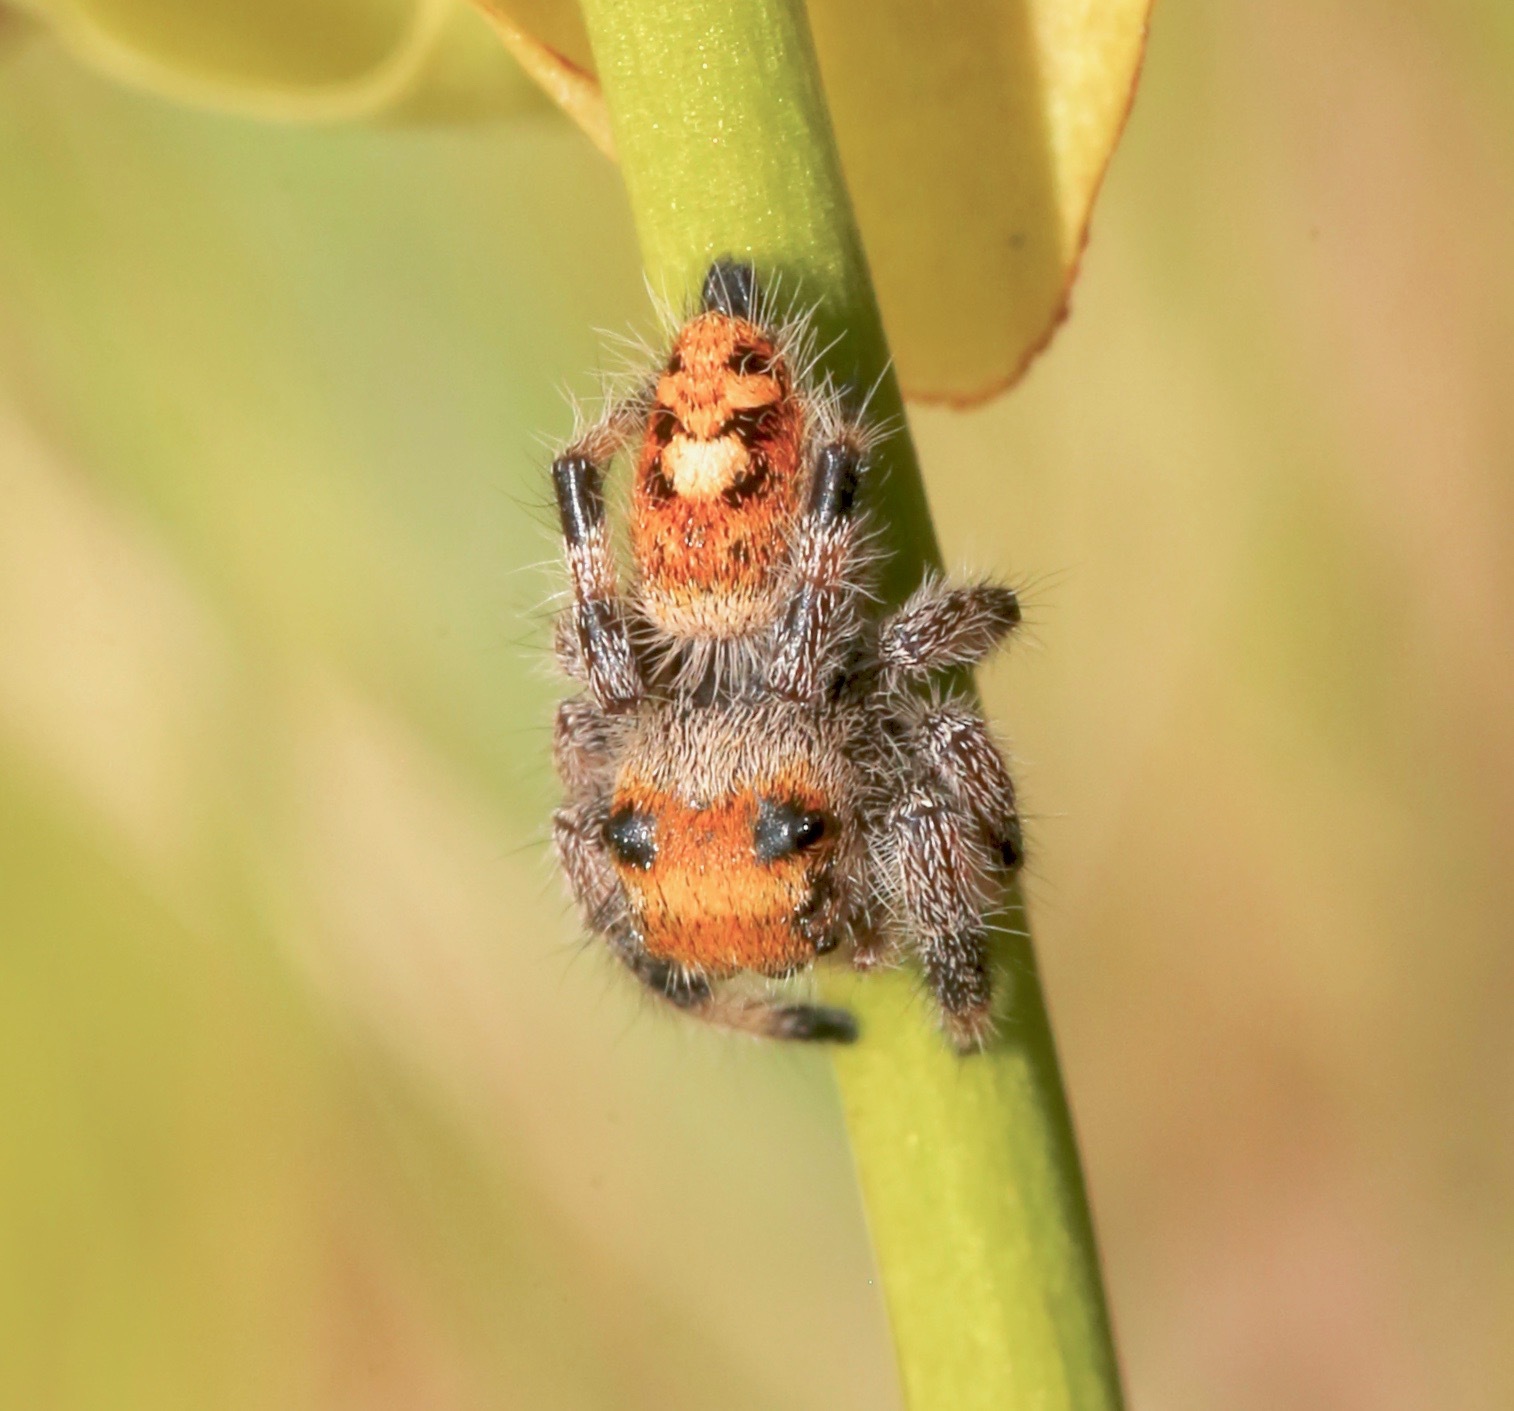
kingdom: Animalia
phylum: Arthropoda
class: Arachnida
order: Araneae
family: Salticidae
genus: Phidippus
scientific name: Phidippus regius
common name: Regal jumper
